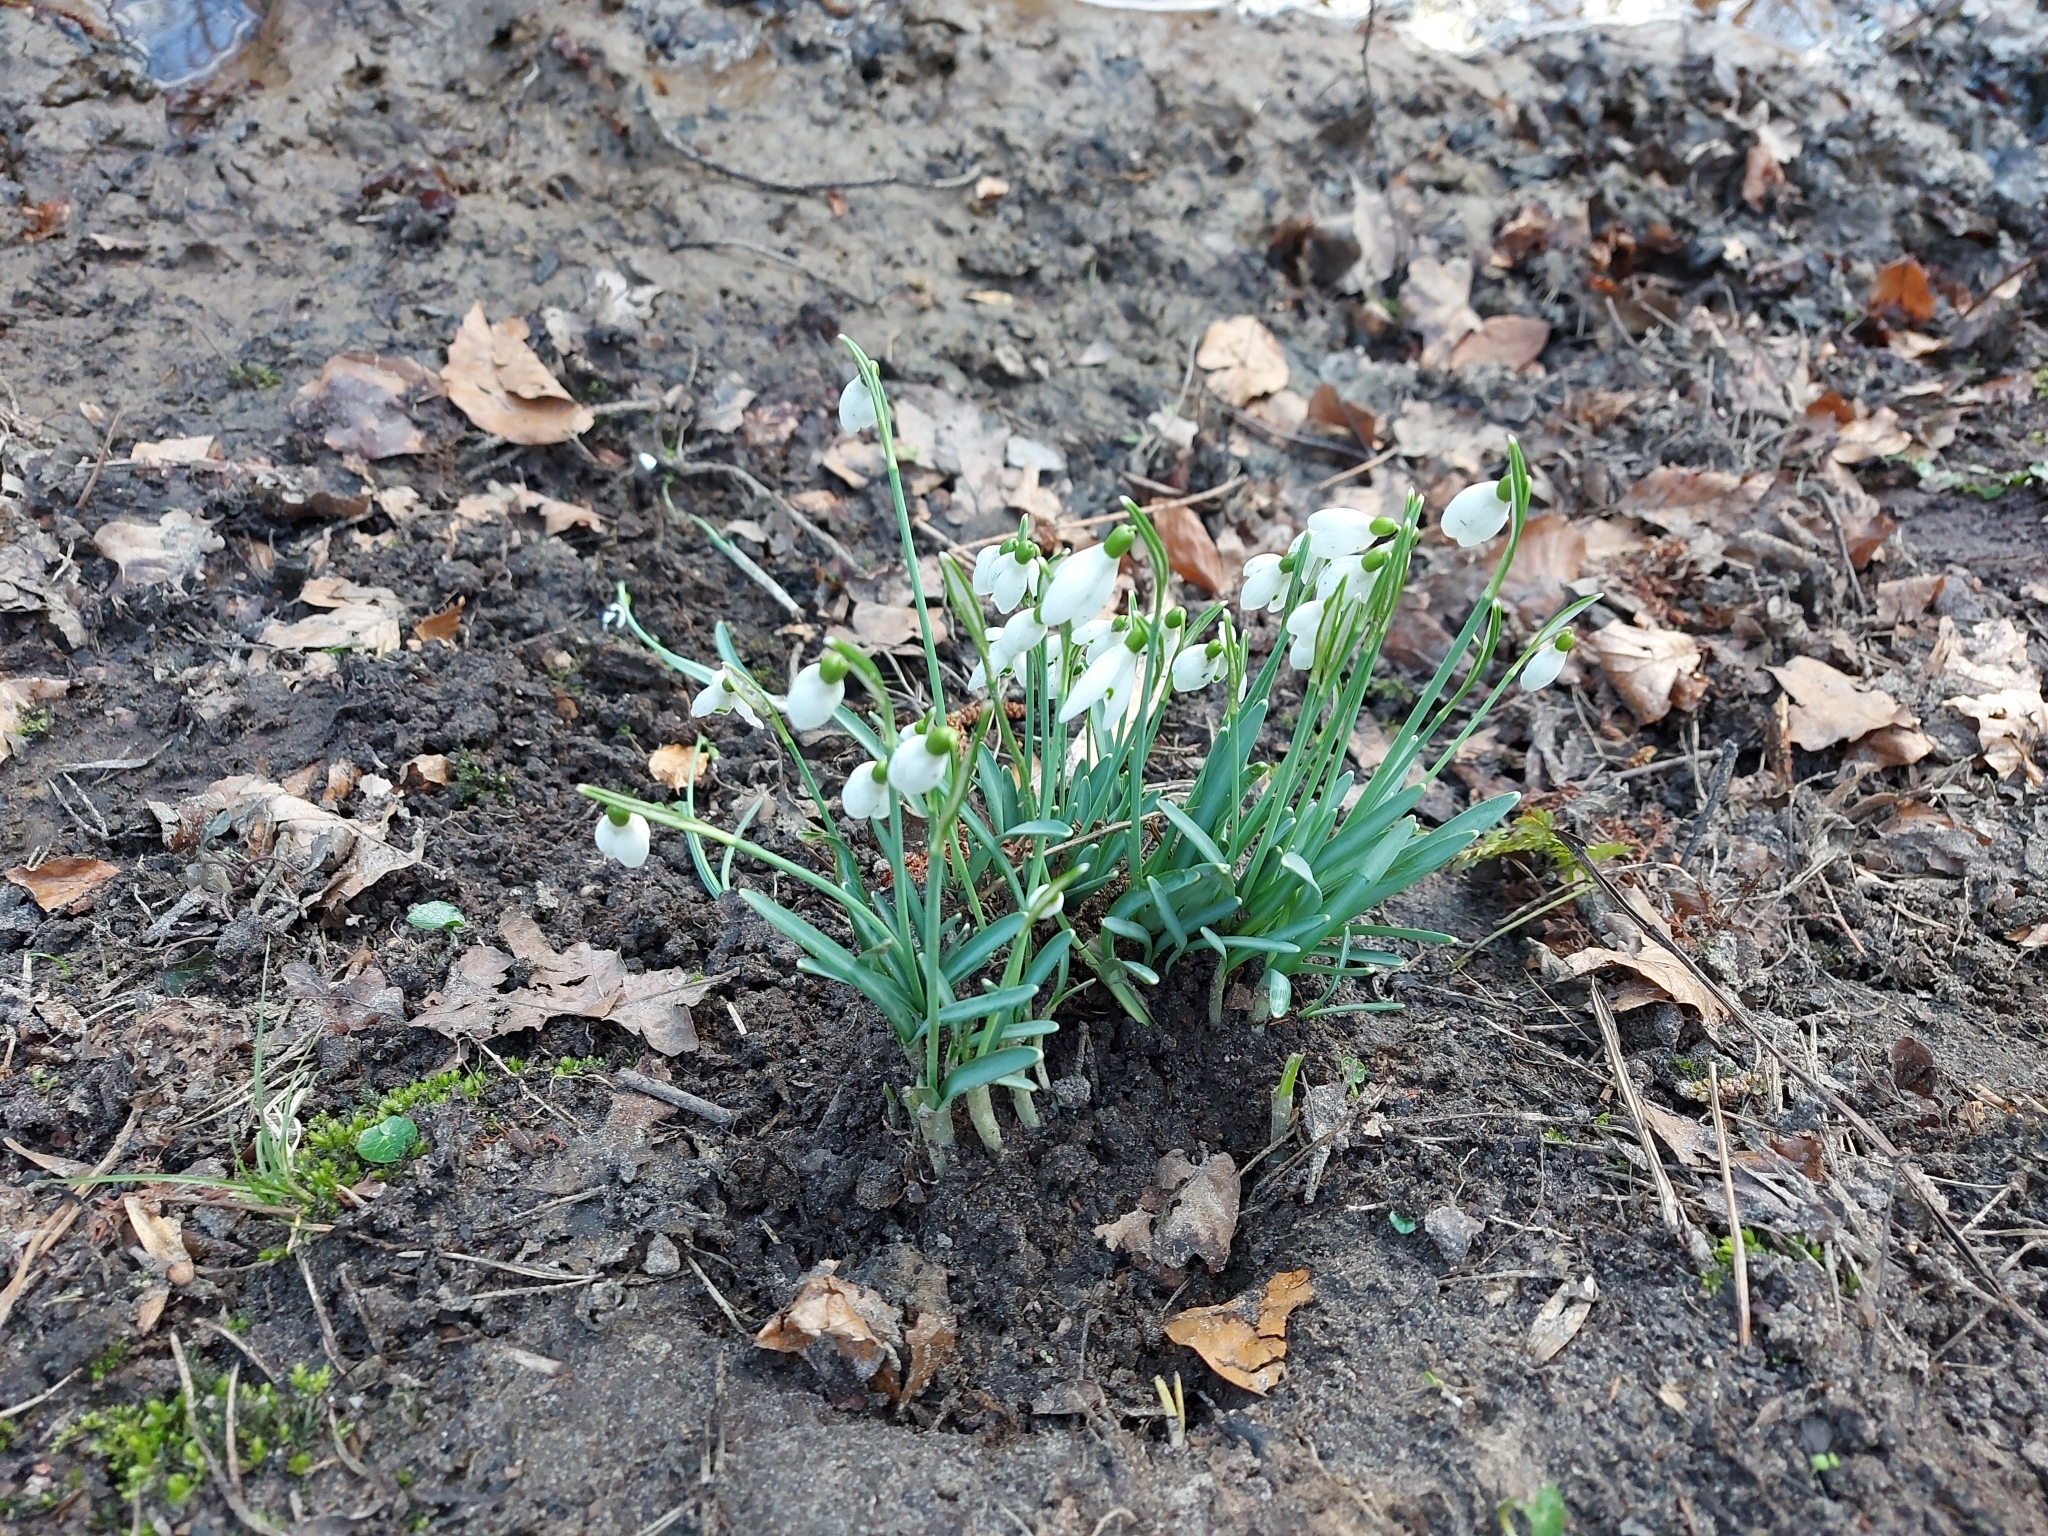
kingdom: Plantae
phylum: Tracheophyta
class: Liliopsida
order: Asparagales
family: Amaryllidaceae
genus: Galanthus
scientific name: Galanthus nivalis
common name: Snowdrop
